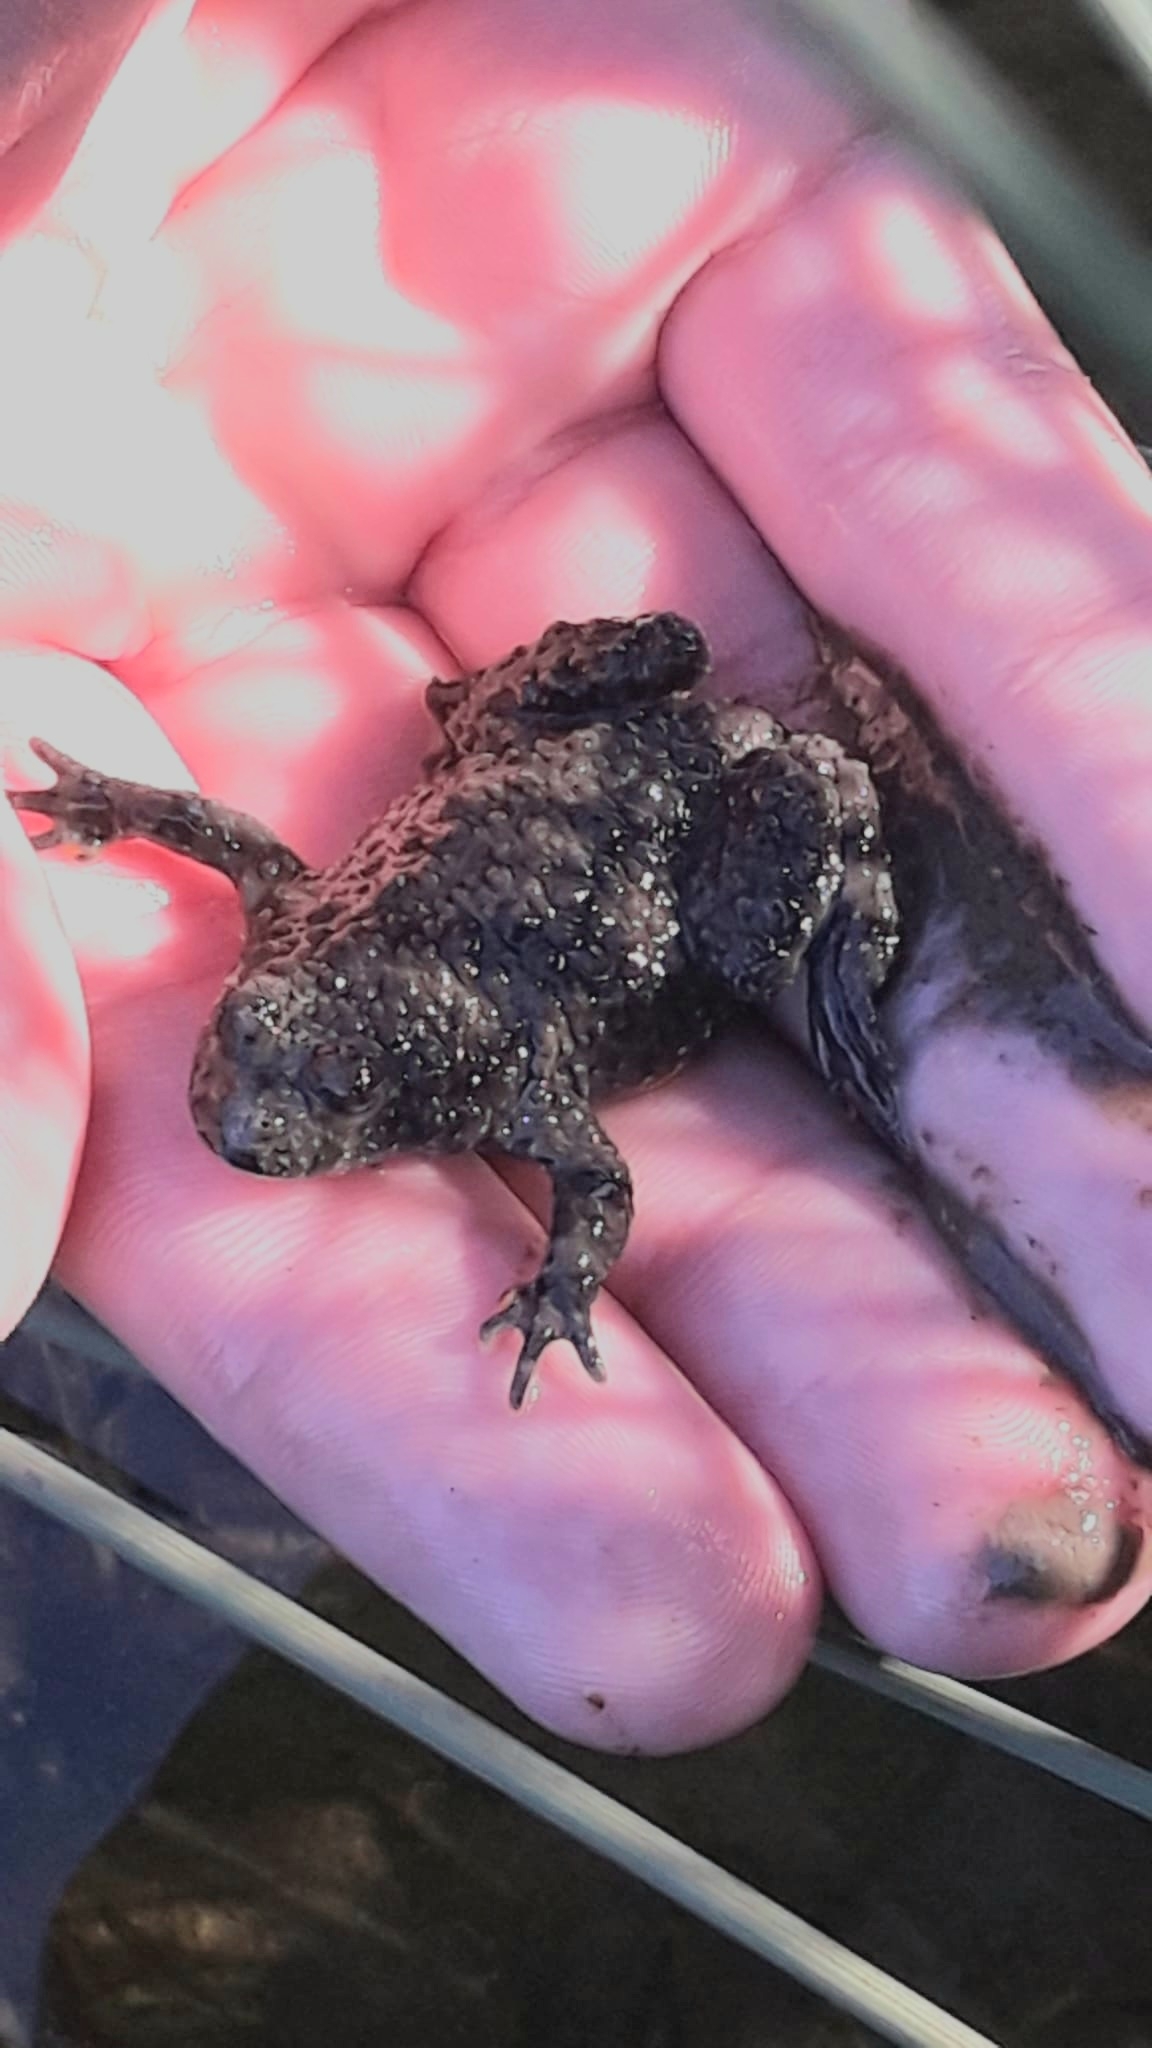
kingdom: Animalia
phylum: Chordata
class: Amphibia
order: Anura
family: Bombinatoridae
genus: Bombina
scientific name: Bombina variegata
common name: Yellow-bellied toad
